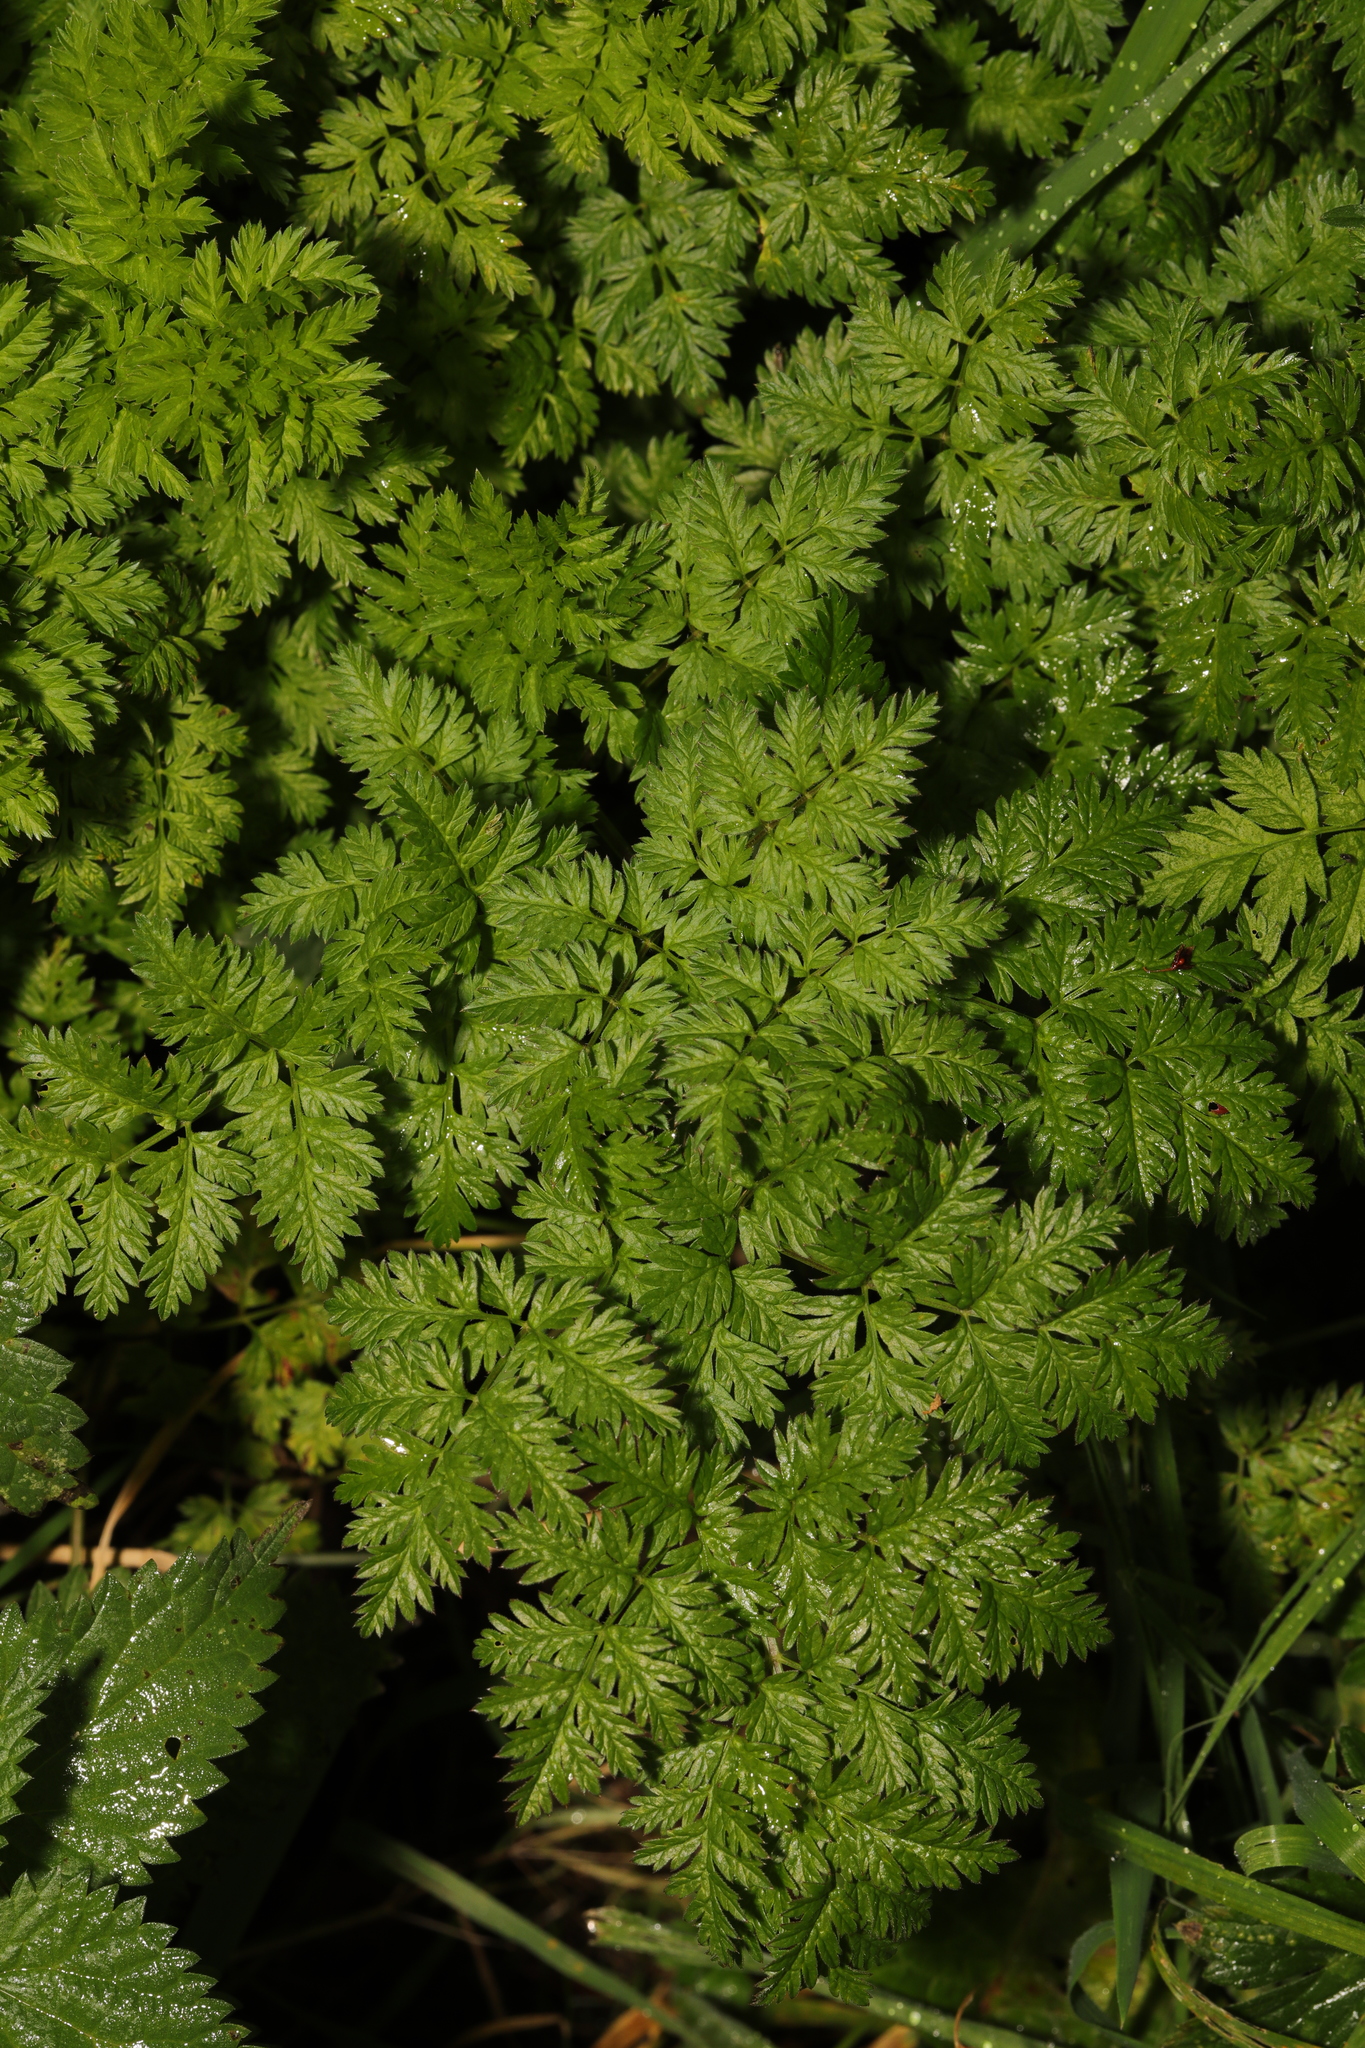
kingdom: Plantae
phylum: Tracheophyta
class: Magnoliopsida
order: Apiales
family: Apiaceae
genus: Anthriscus
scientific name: Anthriscus sylvestris
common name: Cow parsley
